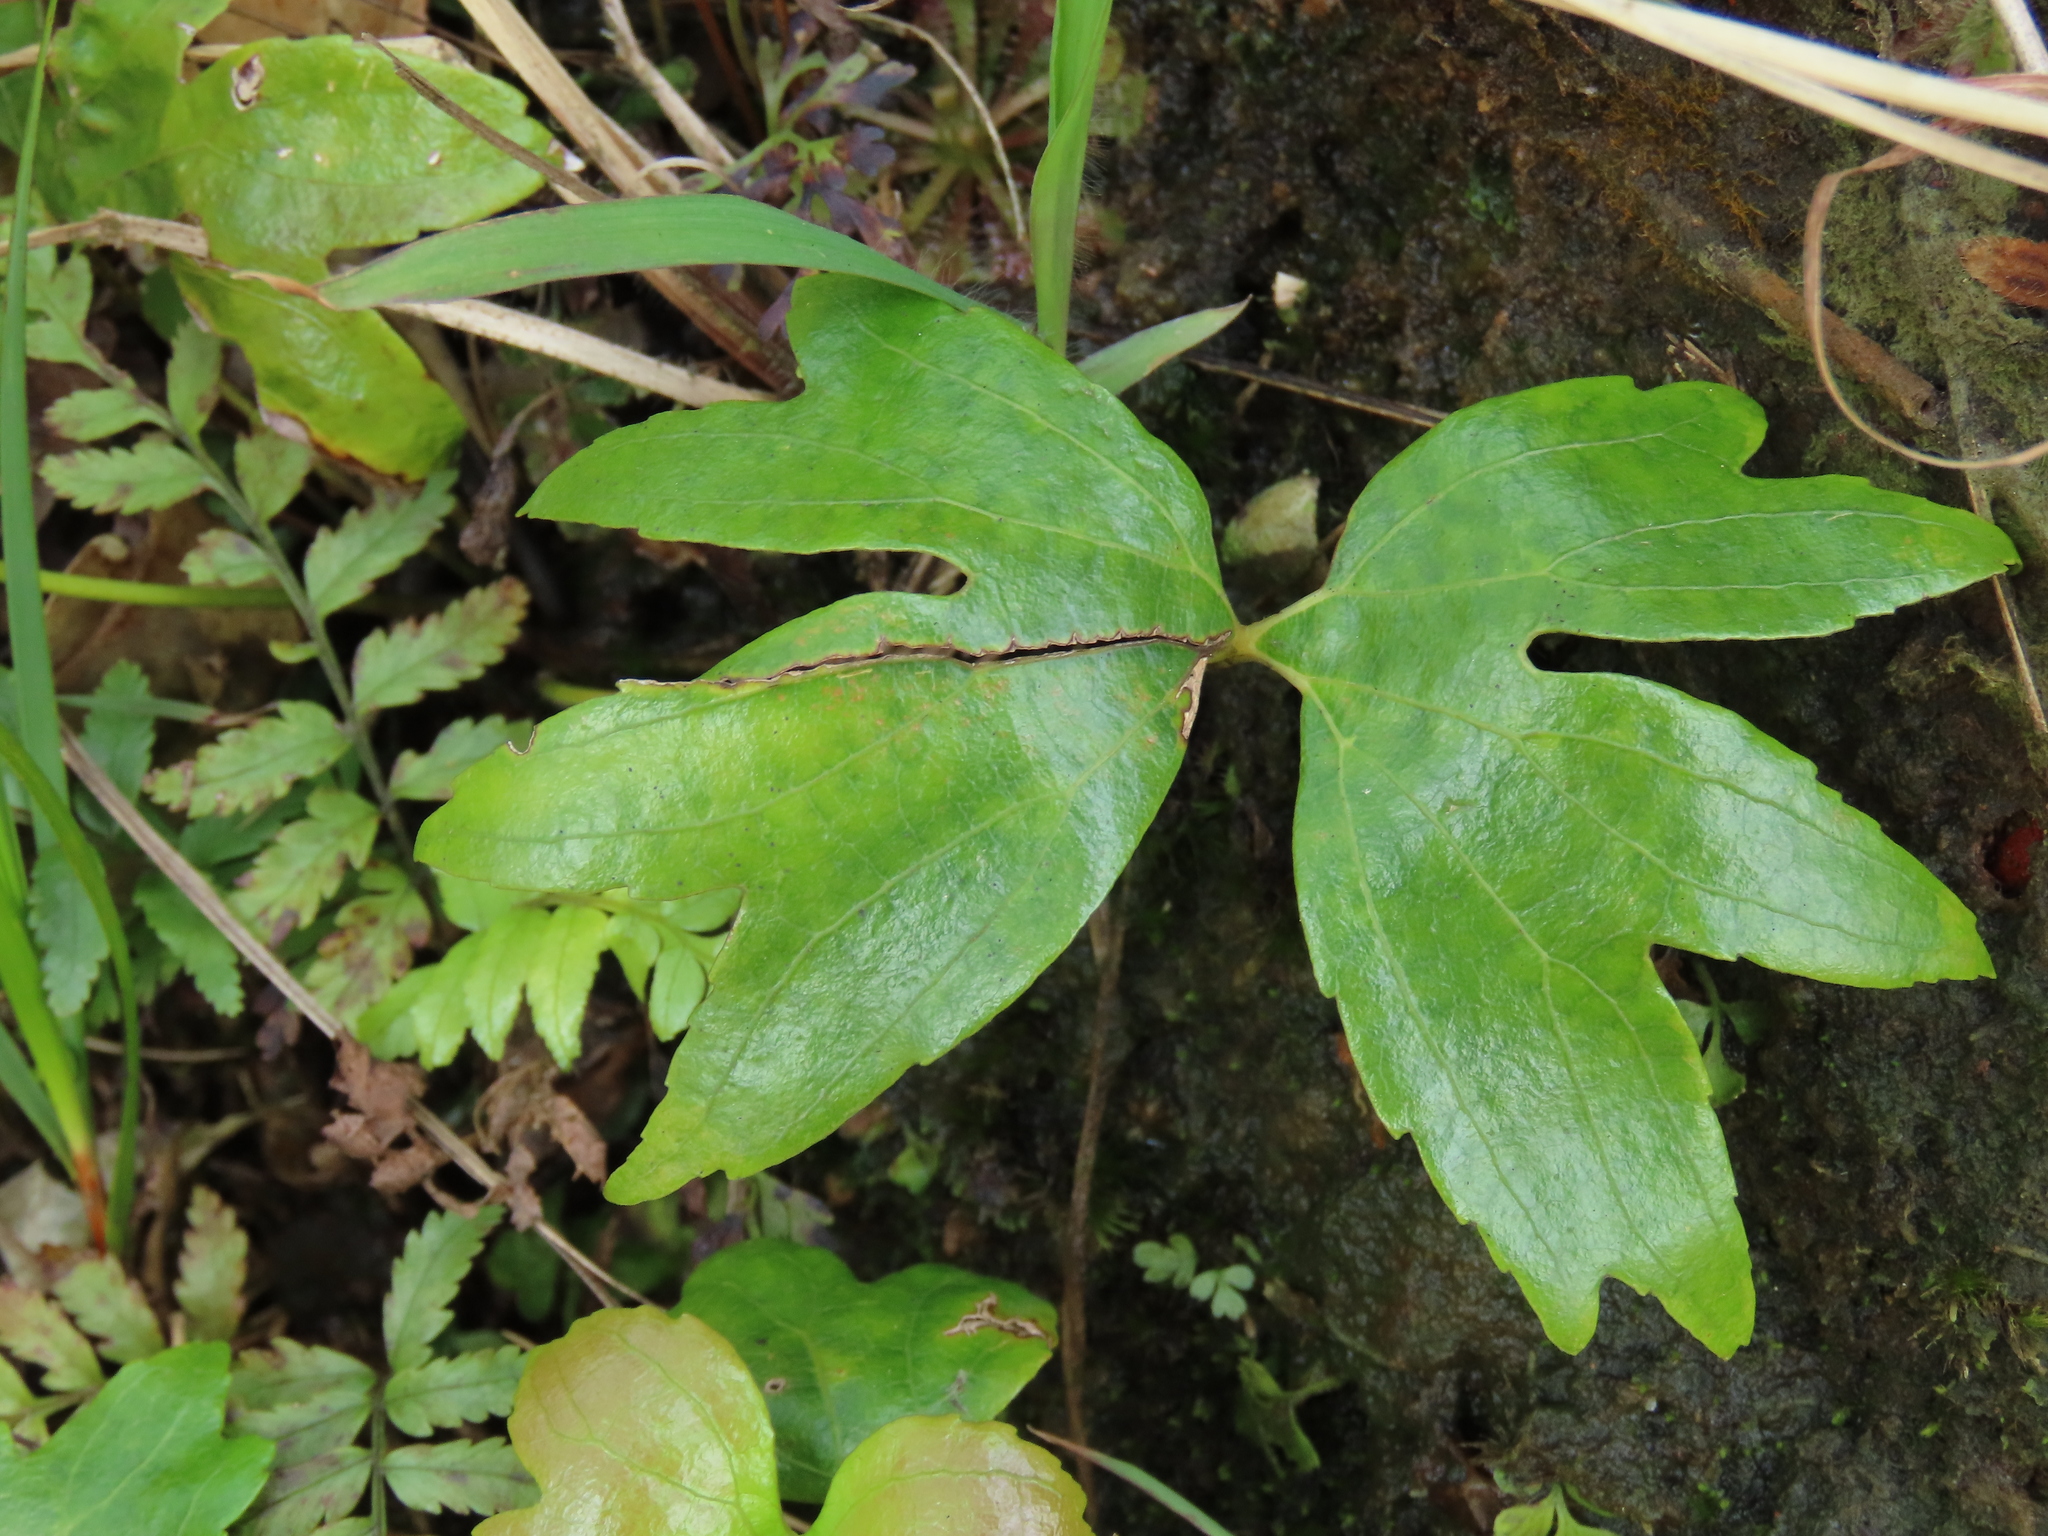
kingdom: Plantae
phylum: Tracheophyta
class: Polypodiopsida
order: Gleicheniales
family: Dipteridaceae
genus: Dipteris
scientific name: Dipteris conjugata
